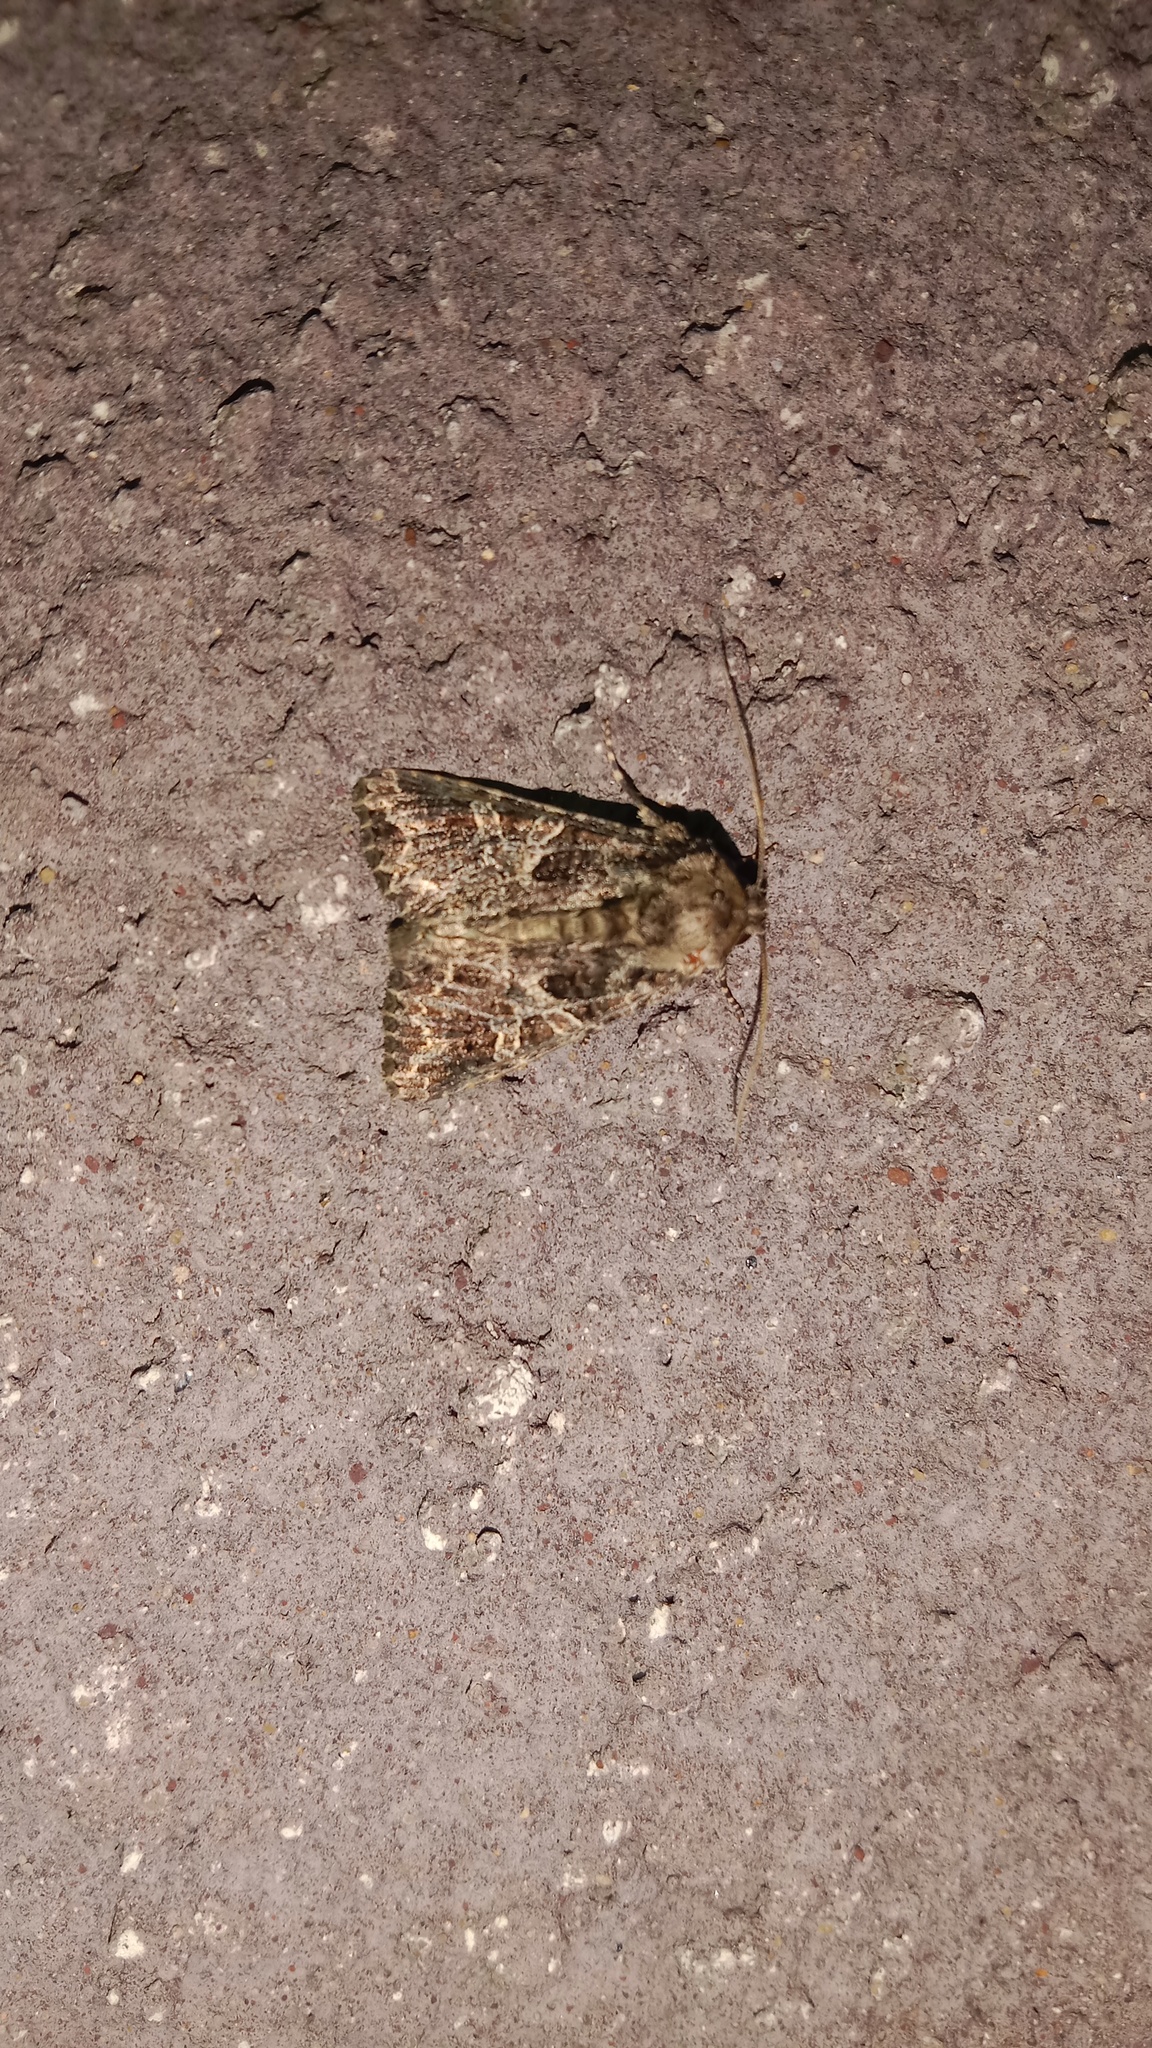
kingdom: Animalia
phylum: Arthropoda
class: Insecta
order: Lepidoptera
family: Noctuidae
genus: Sideridis
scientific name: Sideridis rivularis
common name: Campion
